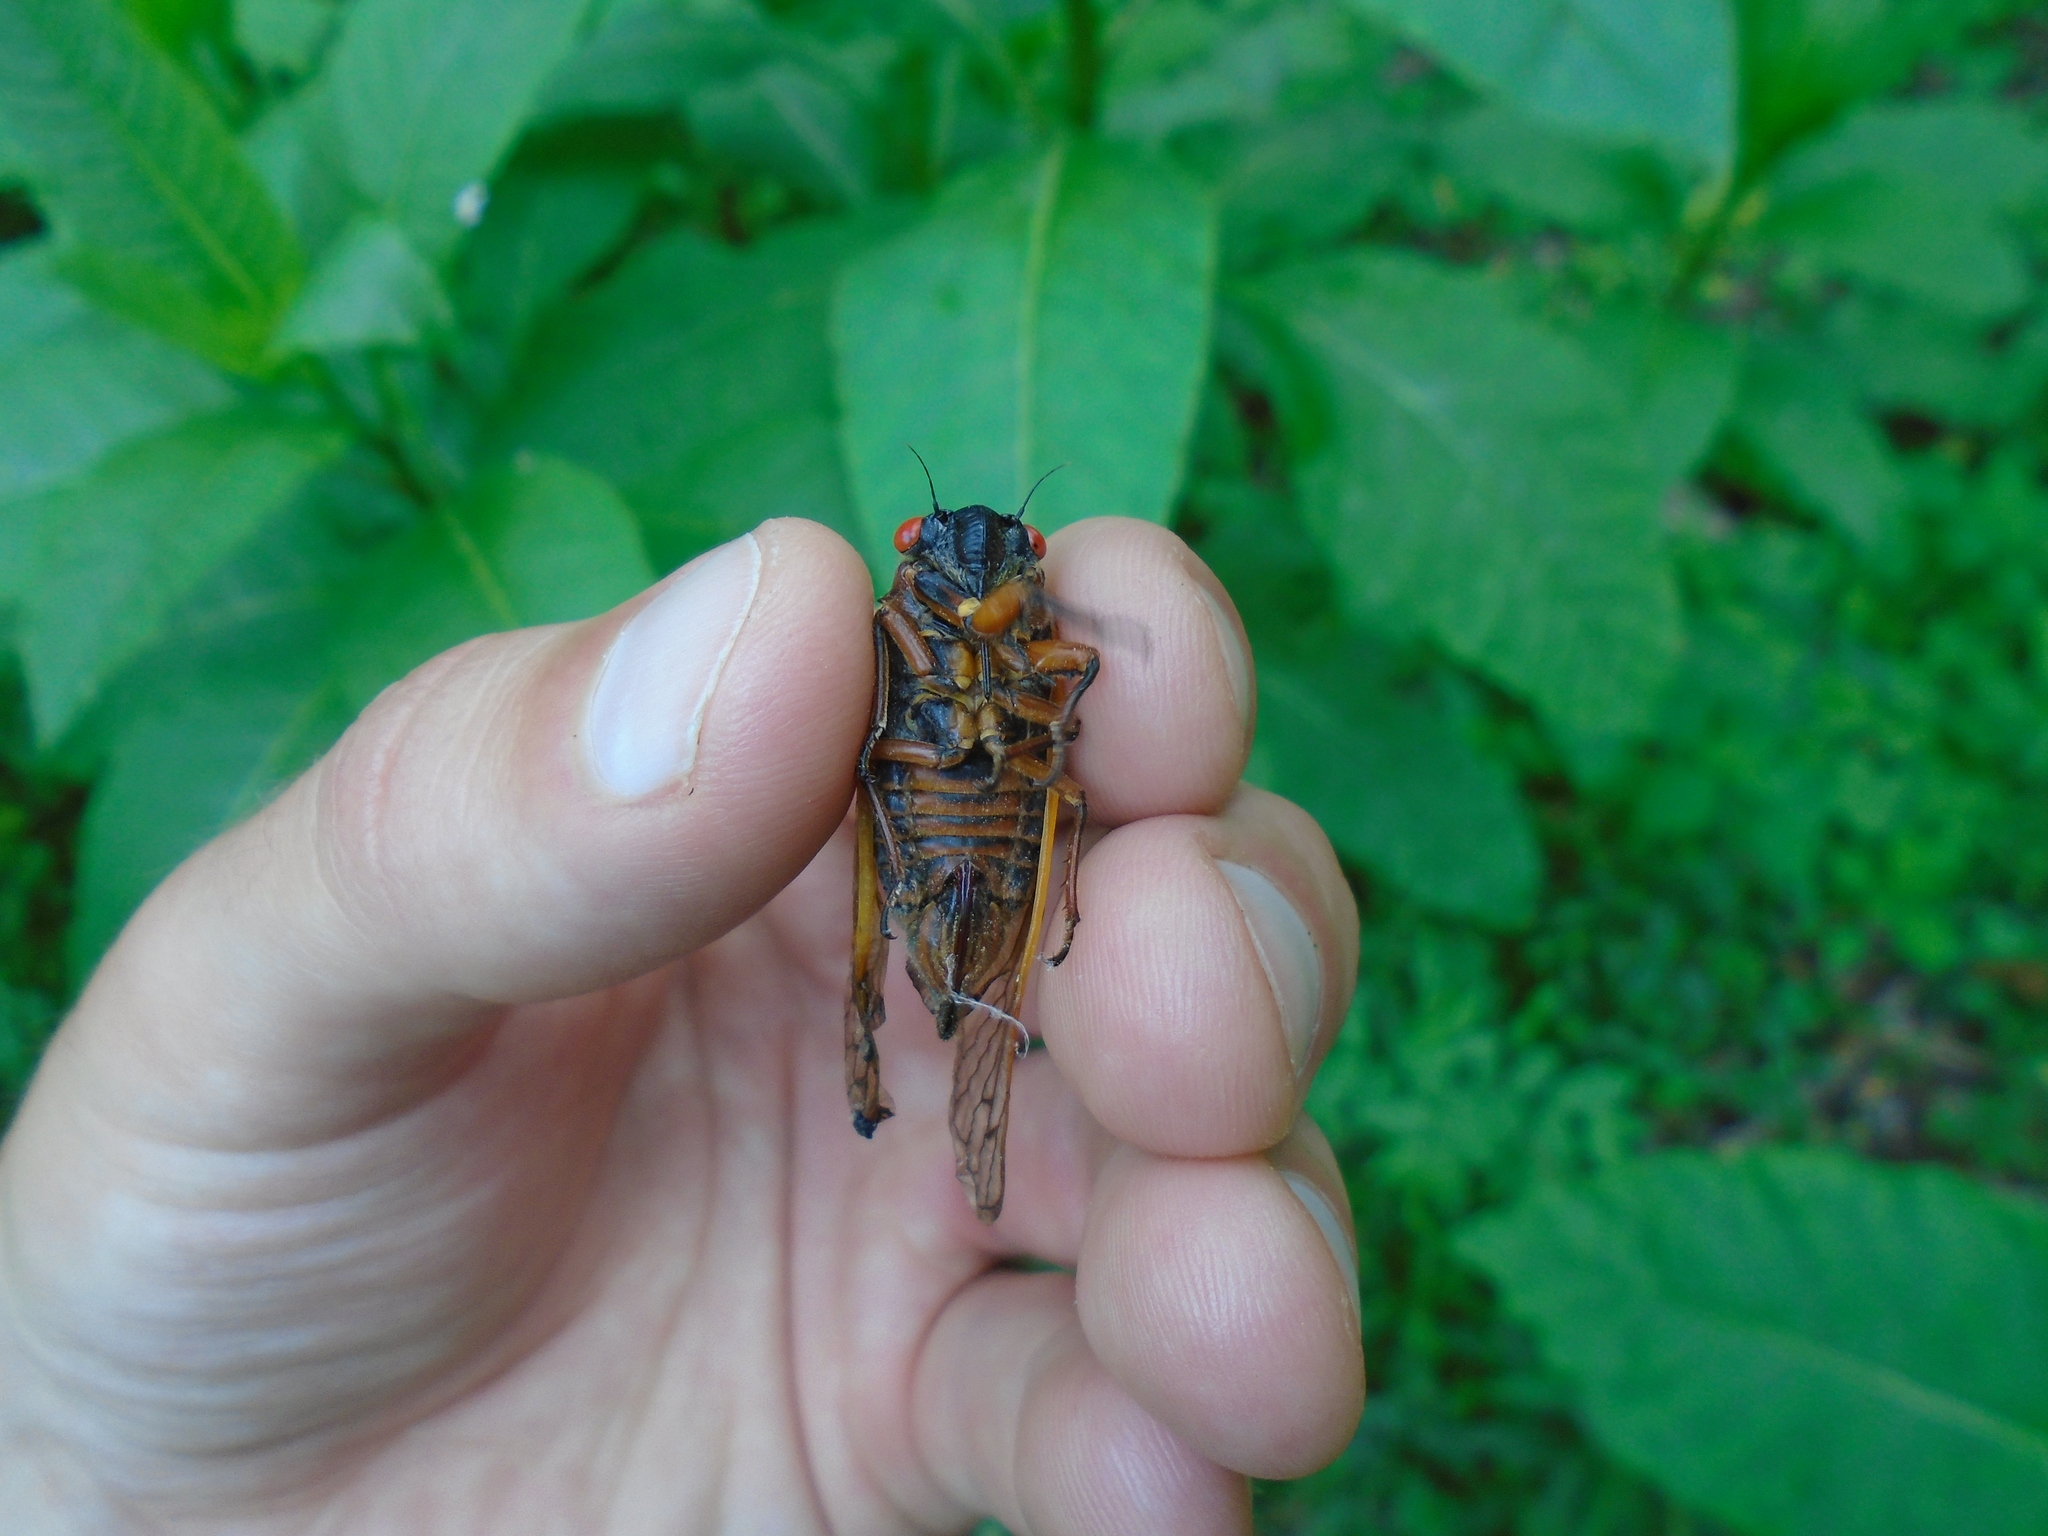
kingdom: Animalia
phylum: Arthropoda
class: Insecta
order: Hemiptera
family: Cicadidae
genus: Magicicada
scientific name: Magicicada septendecim
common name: Periodical cicada
